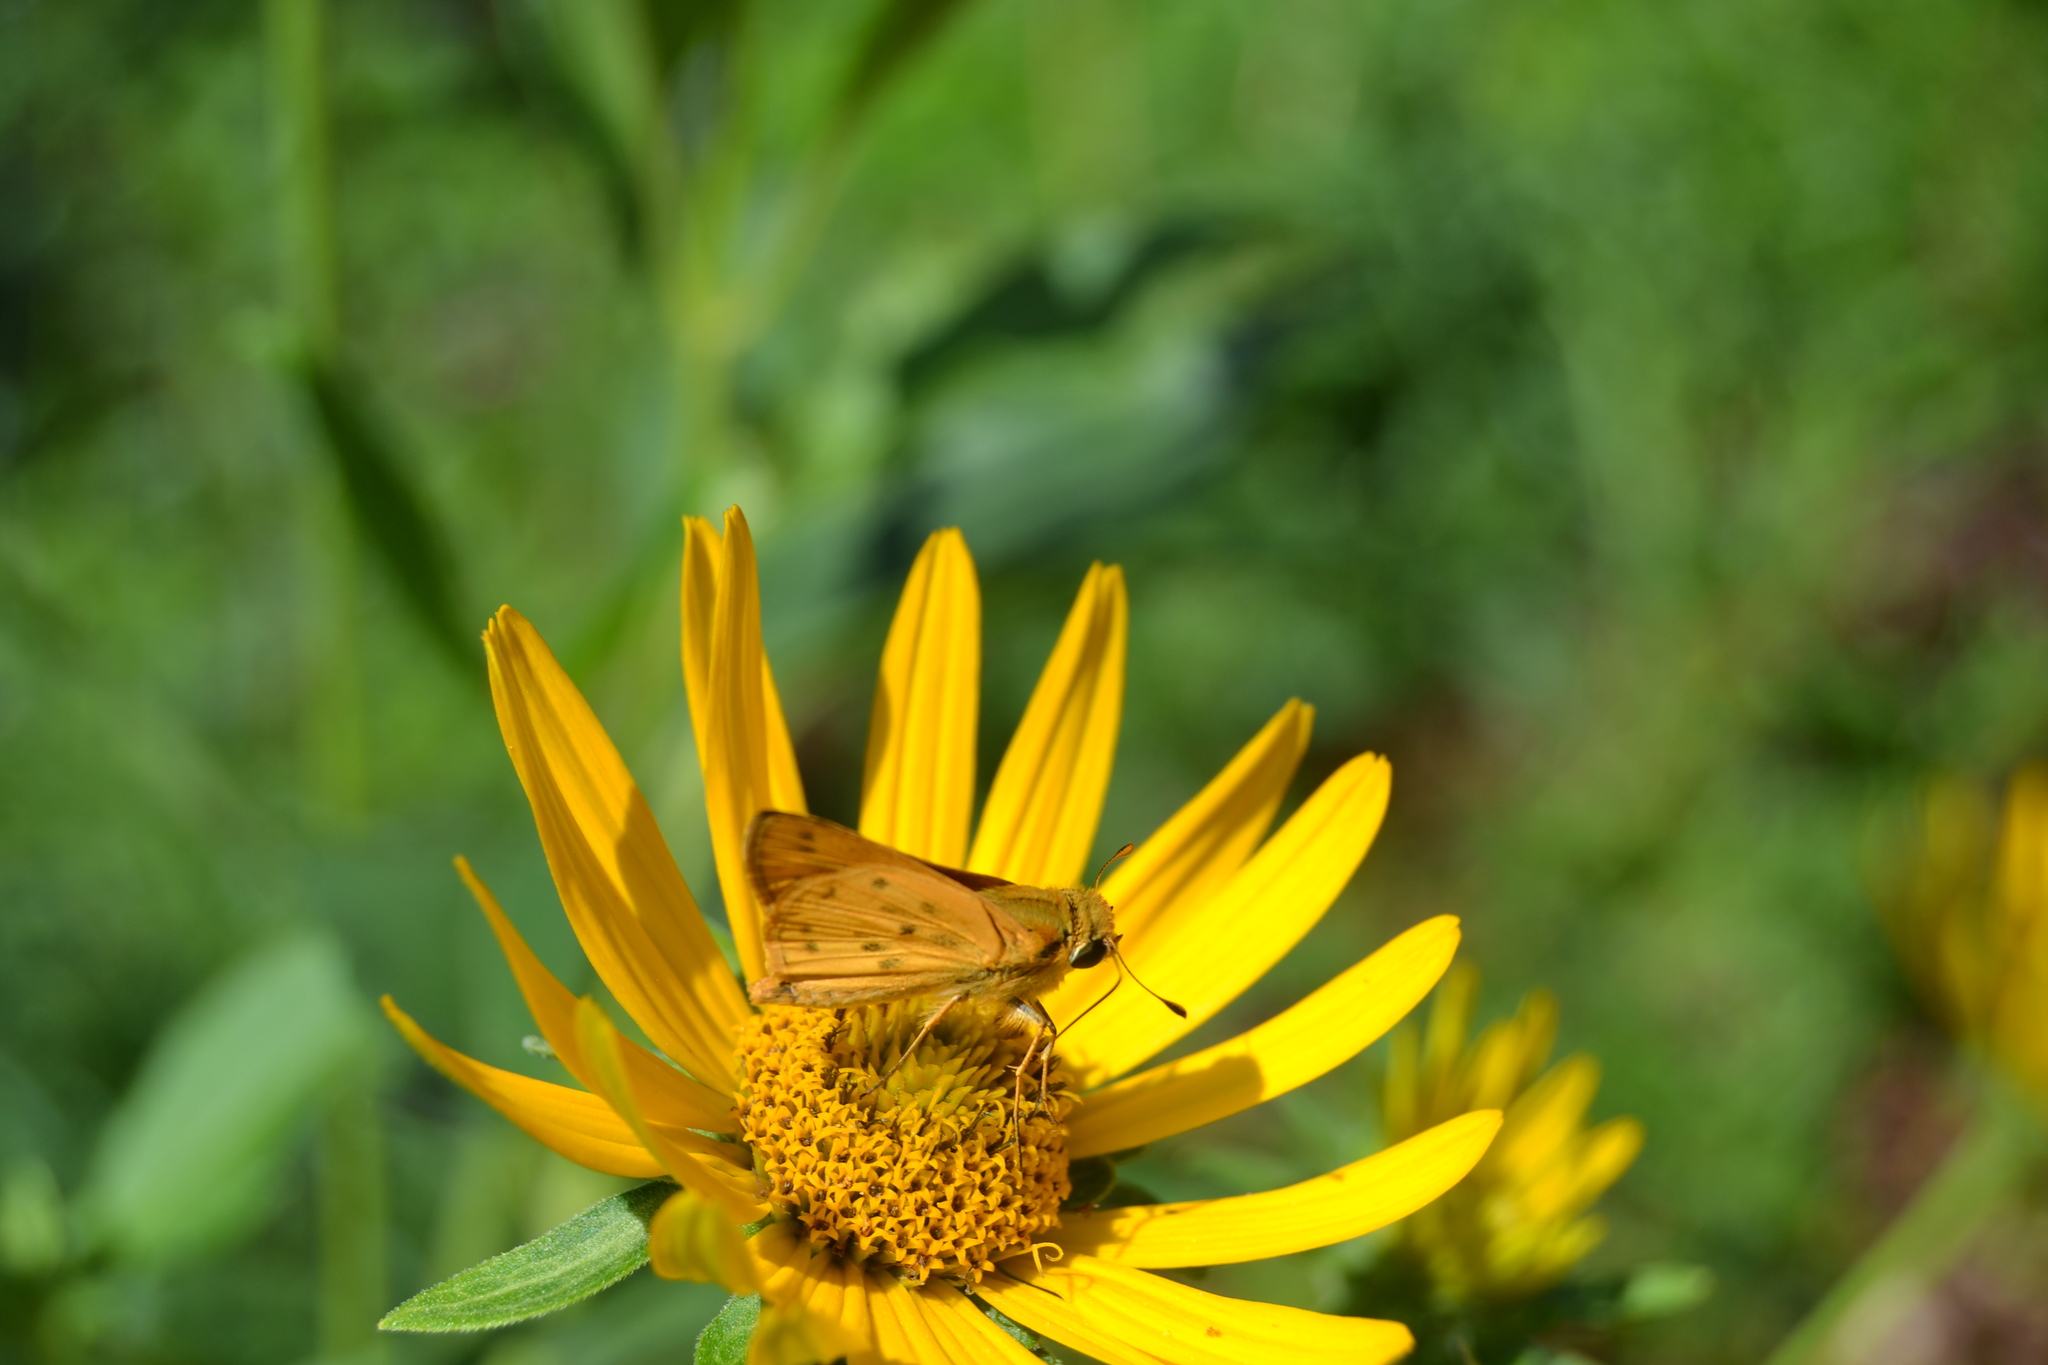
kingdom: Animalia
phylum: Arthropoda
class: Insecta
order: Lepidoptera
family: Hesperiidae
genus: Hylephila
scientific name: Hylephila phyleus
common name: Fiery skipper
